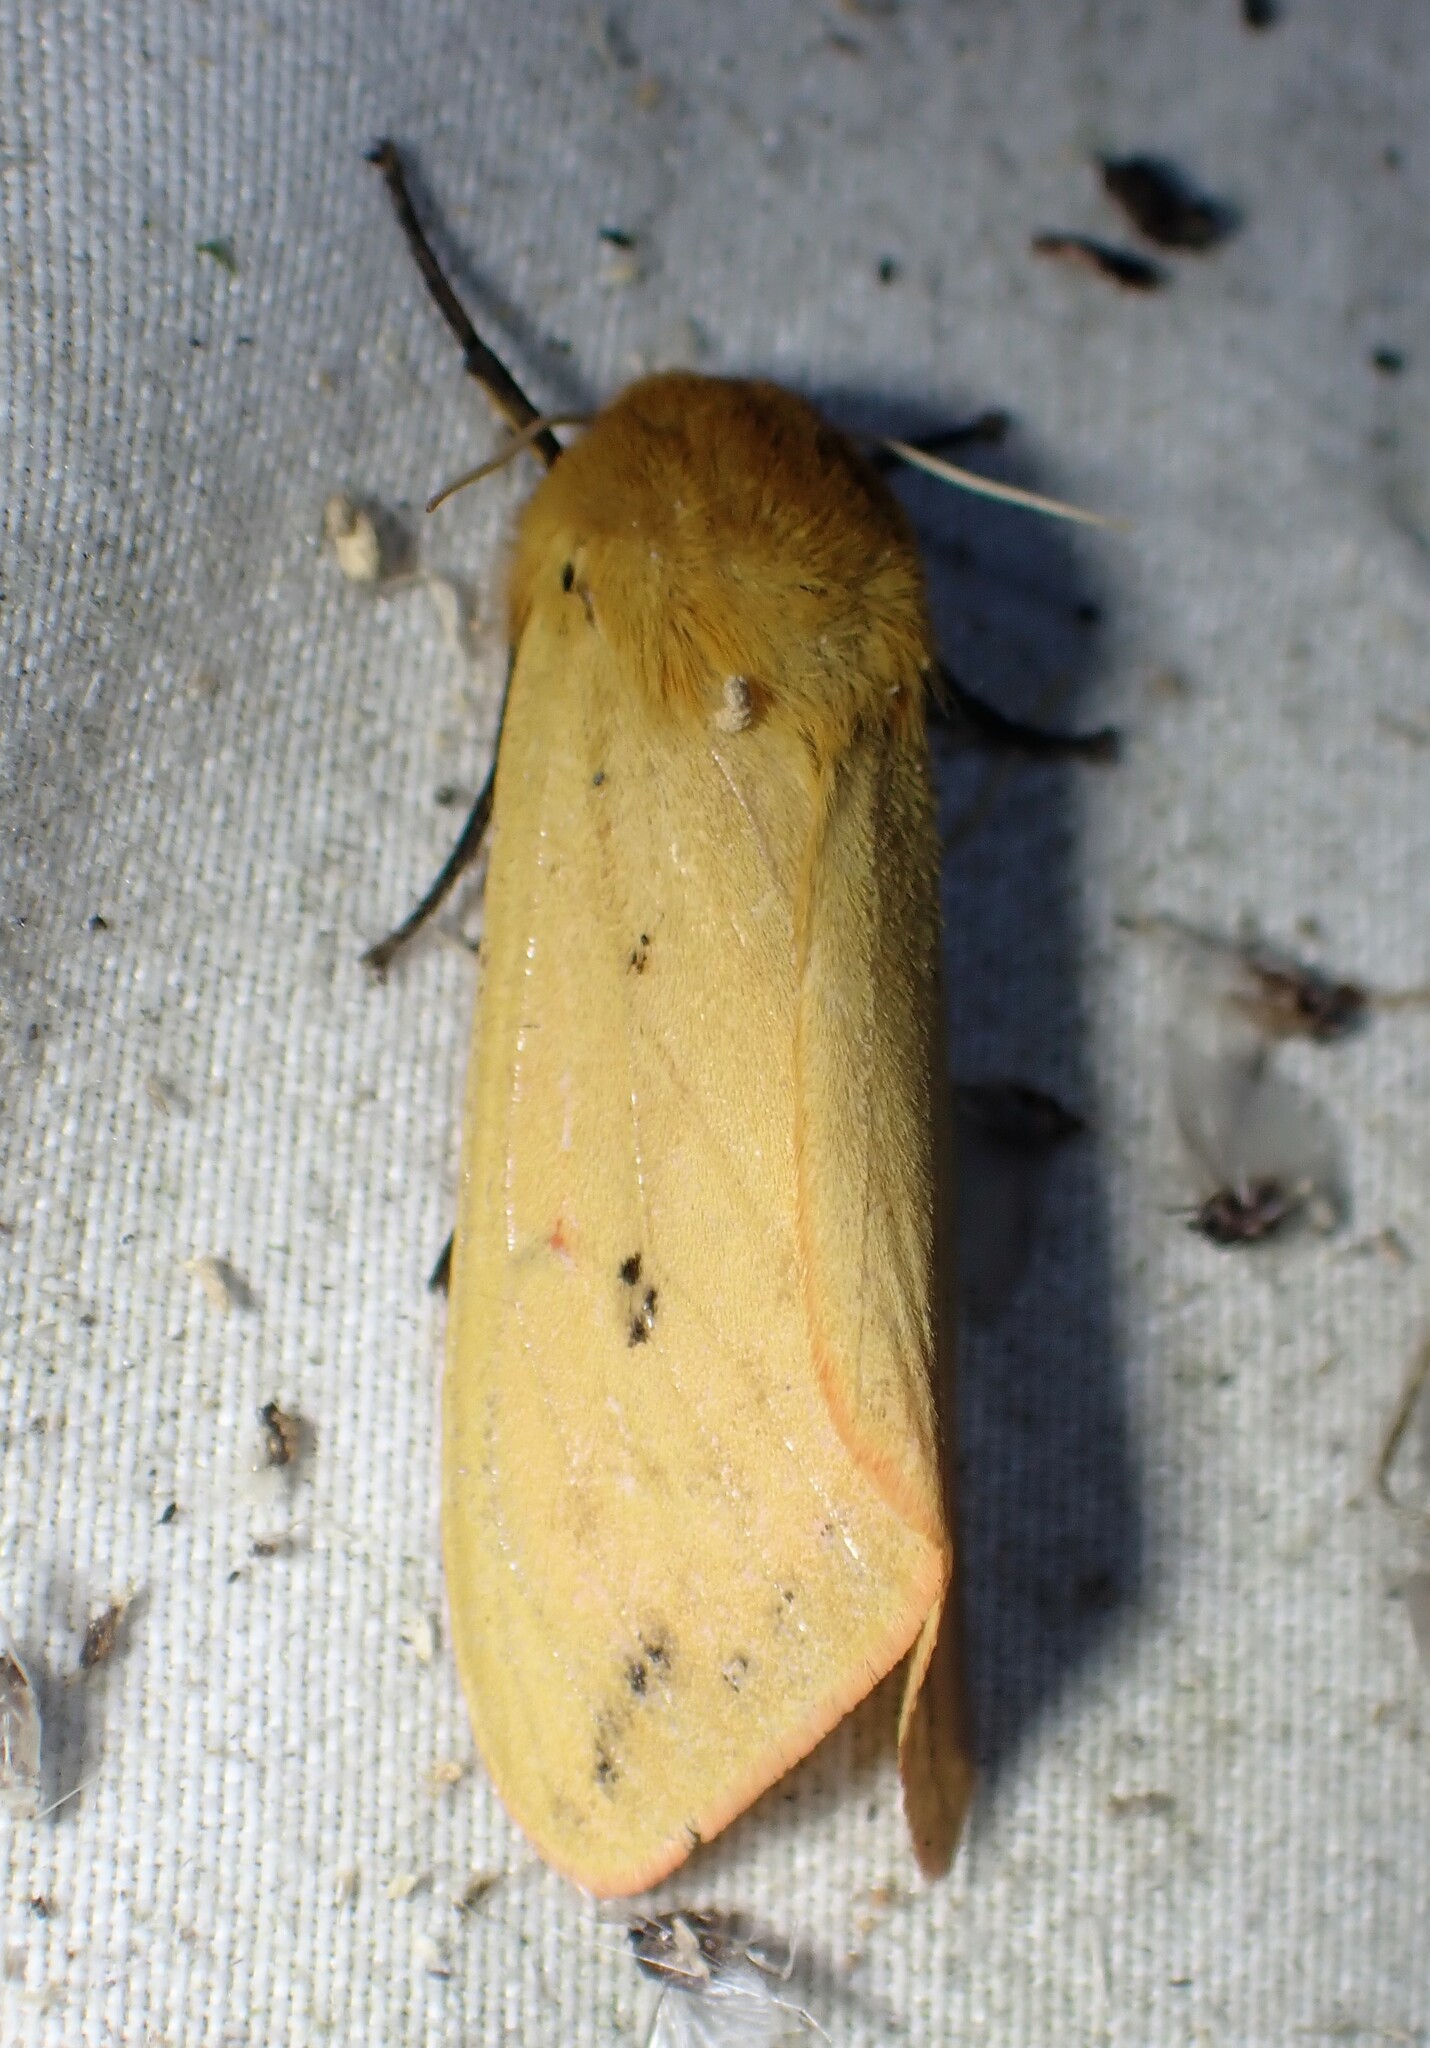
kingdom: Animalia
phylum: Arthropoda
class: Insecta
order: Lepidoptera
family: Erebidae
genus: Pyrrharctia
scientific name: Pyrrharctia isabella
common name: Isabella tiger moth
